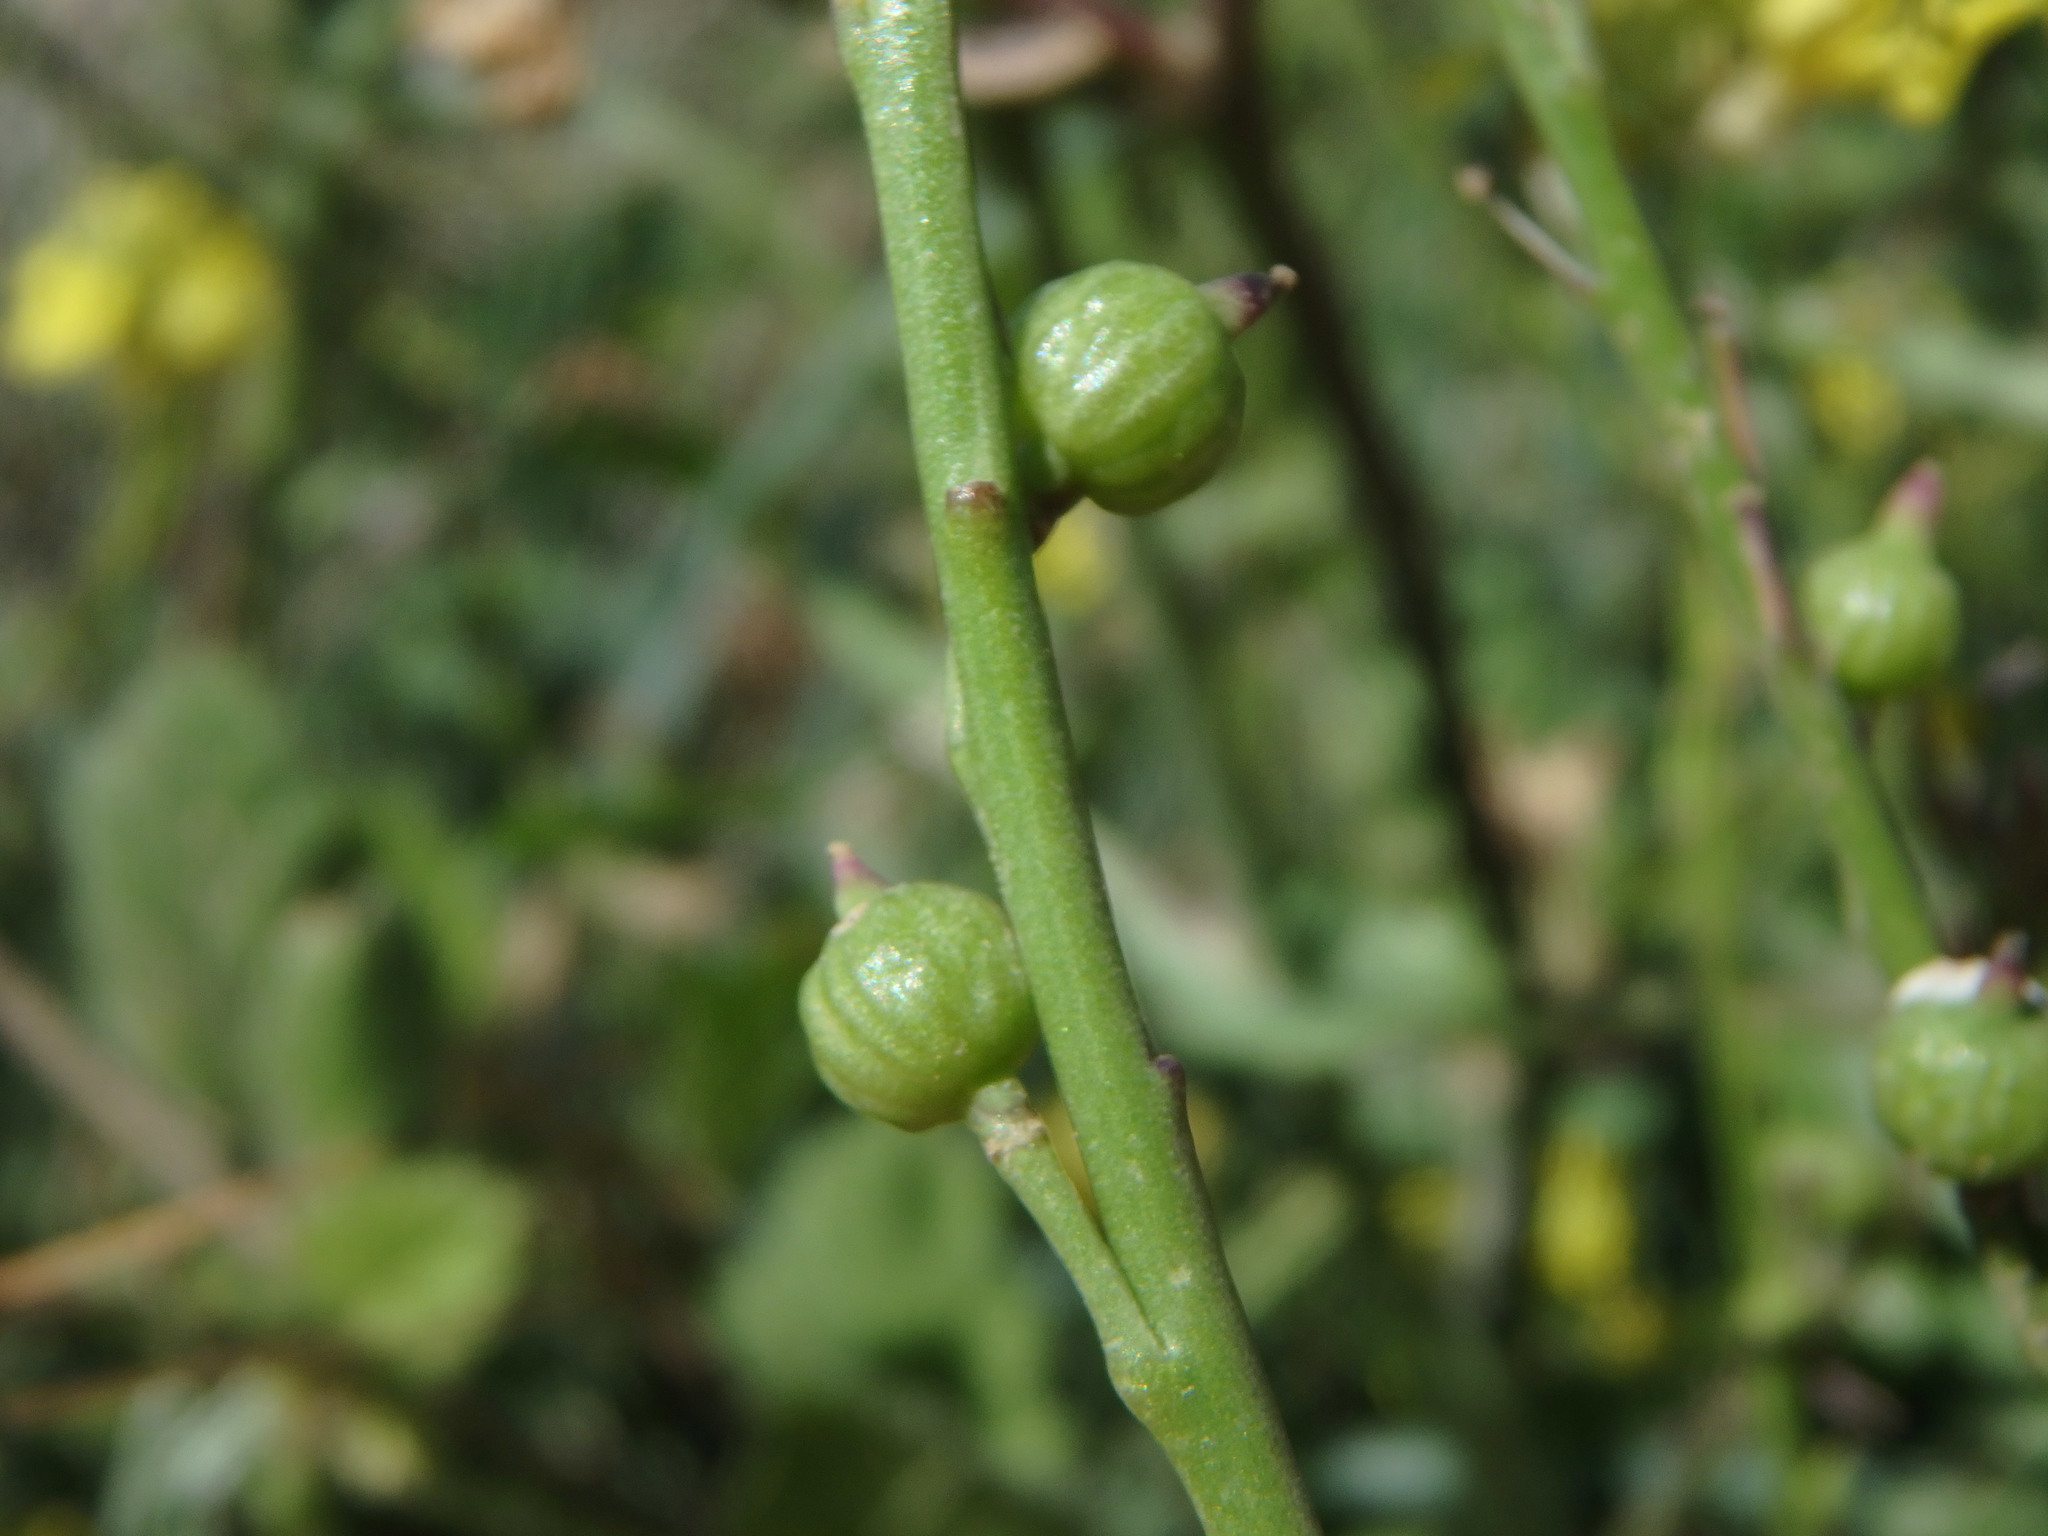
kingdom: Plantae
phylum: Tracheophyta
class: Magnoliopsida
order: Brassicales
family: Brassicaceae
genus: Rapistrum
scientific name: Rapistrum rugosum
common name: Annual bastardcabbage
